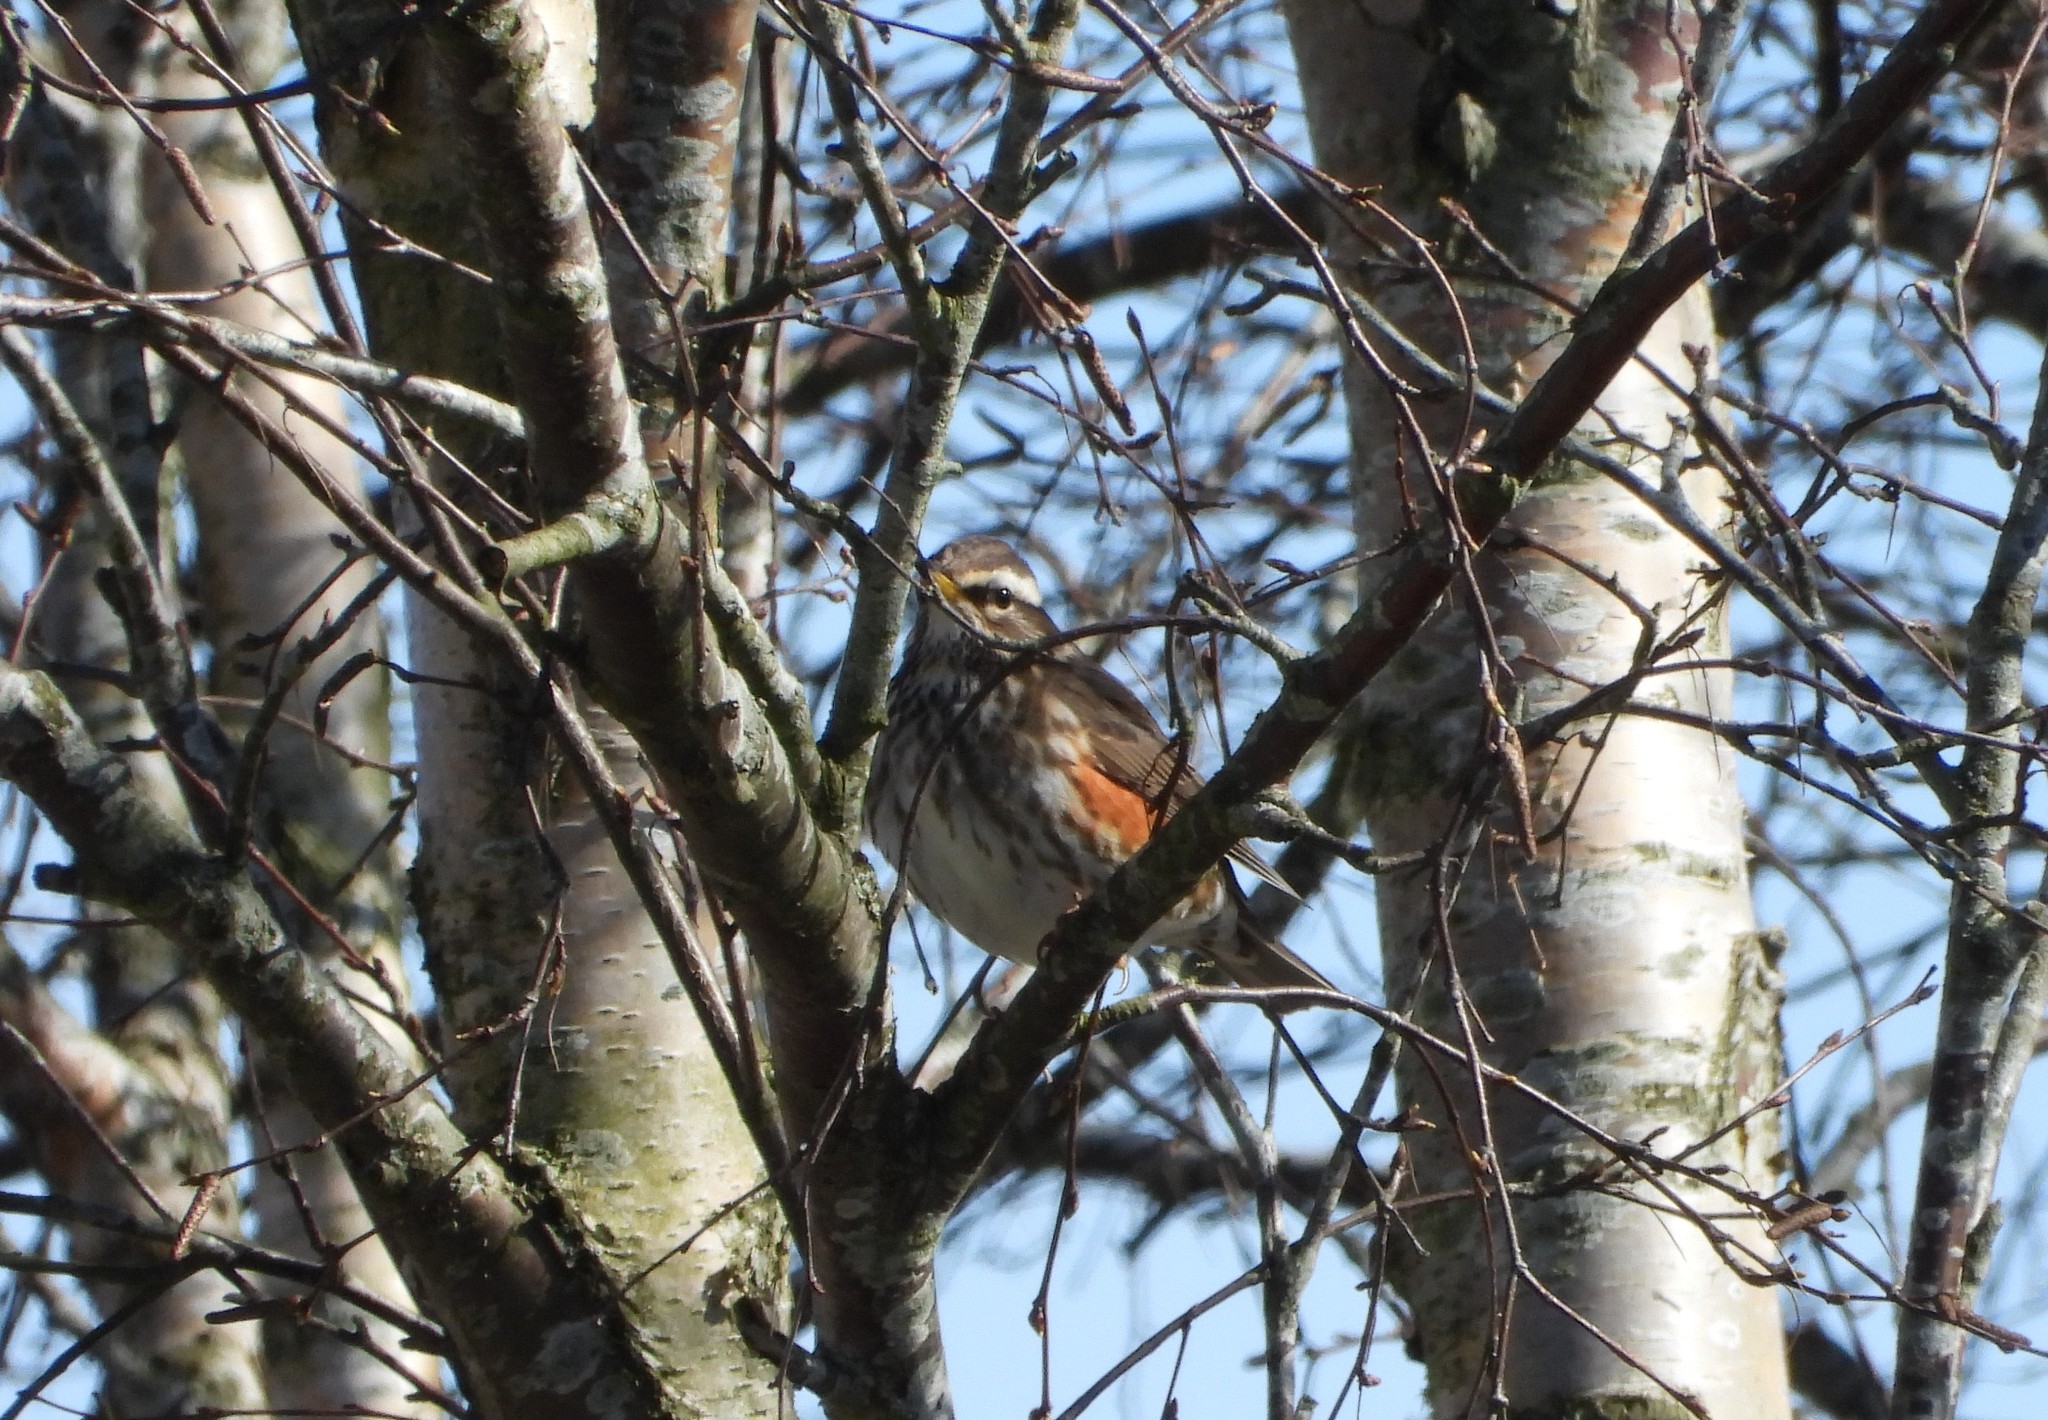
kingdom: Animalia
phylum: Chordata
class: Aves
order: Passeriformes
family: Turdidae
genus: Turdus
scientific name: Turdus iliacus
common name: Redwing
